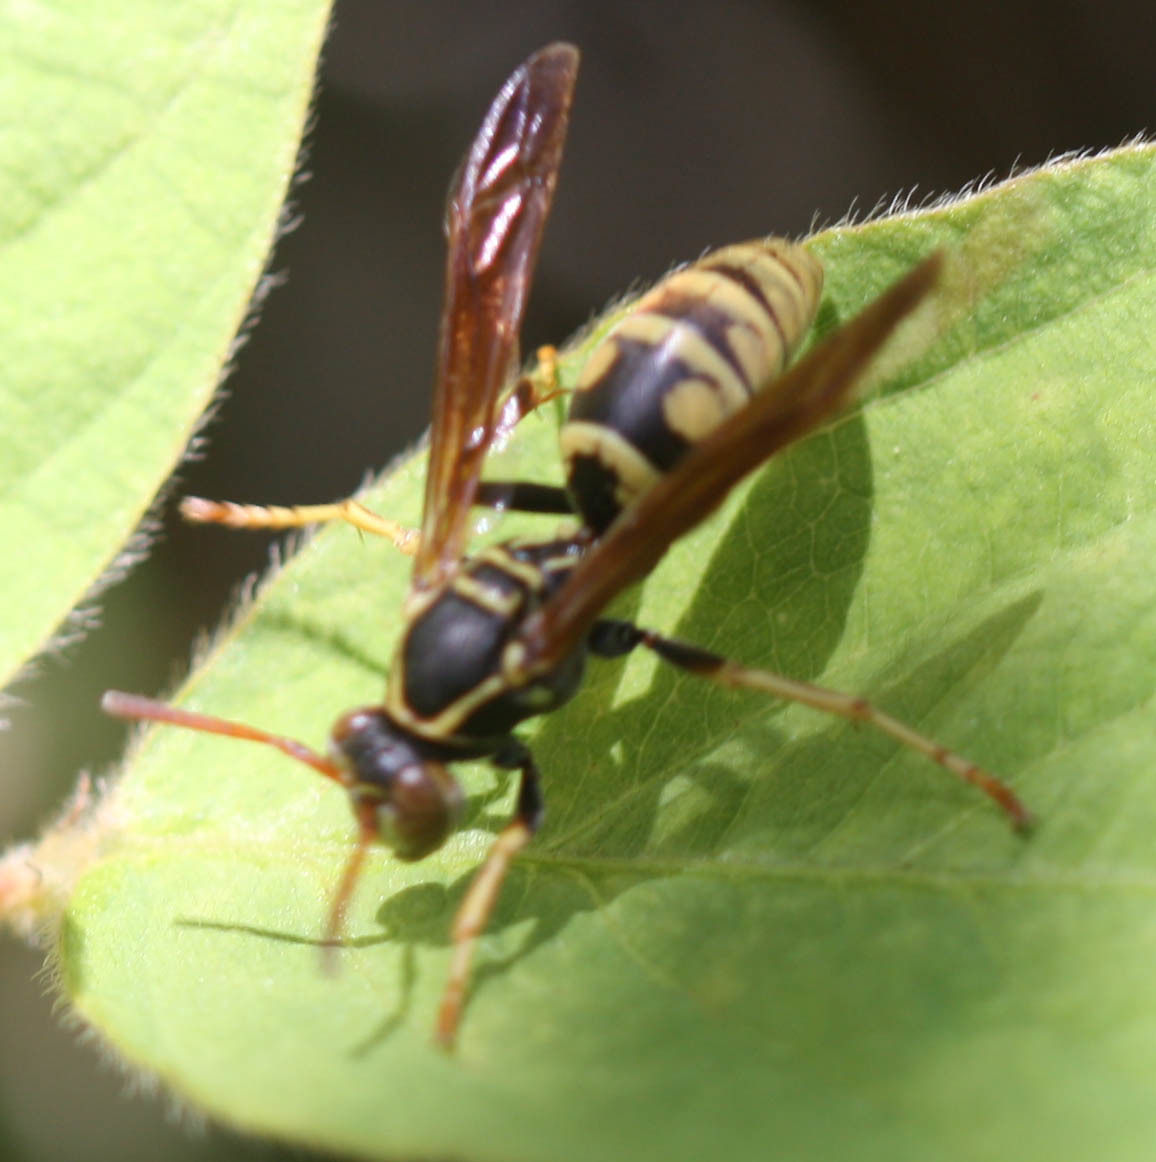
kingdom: Animalia
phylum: Arthropoda
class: Insecta
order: Hymenoptera
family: Eumenidae
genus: Polistes
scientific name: Polistes aurifer
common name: Paper wasp
